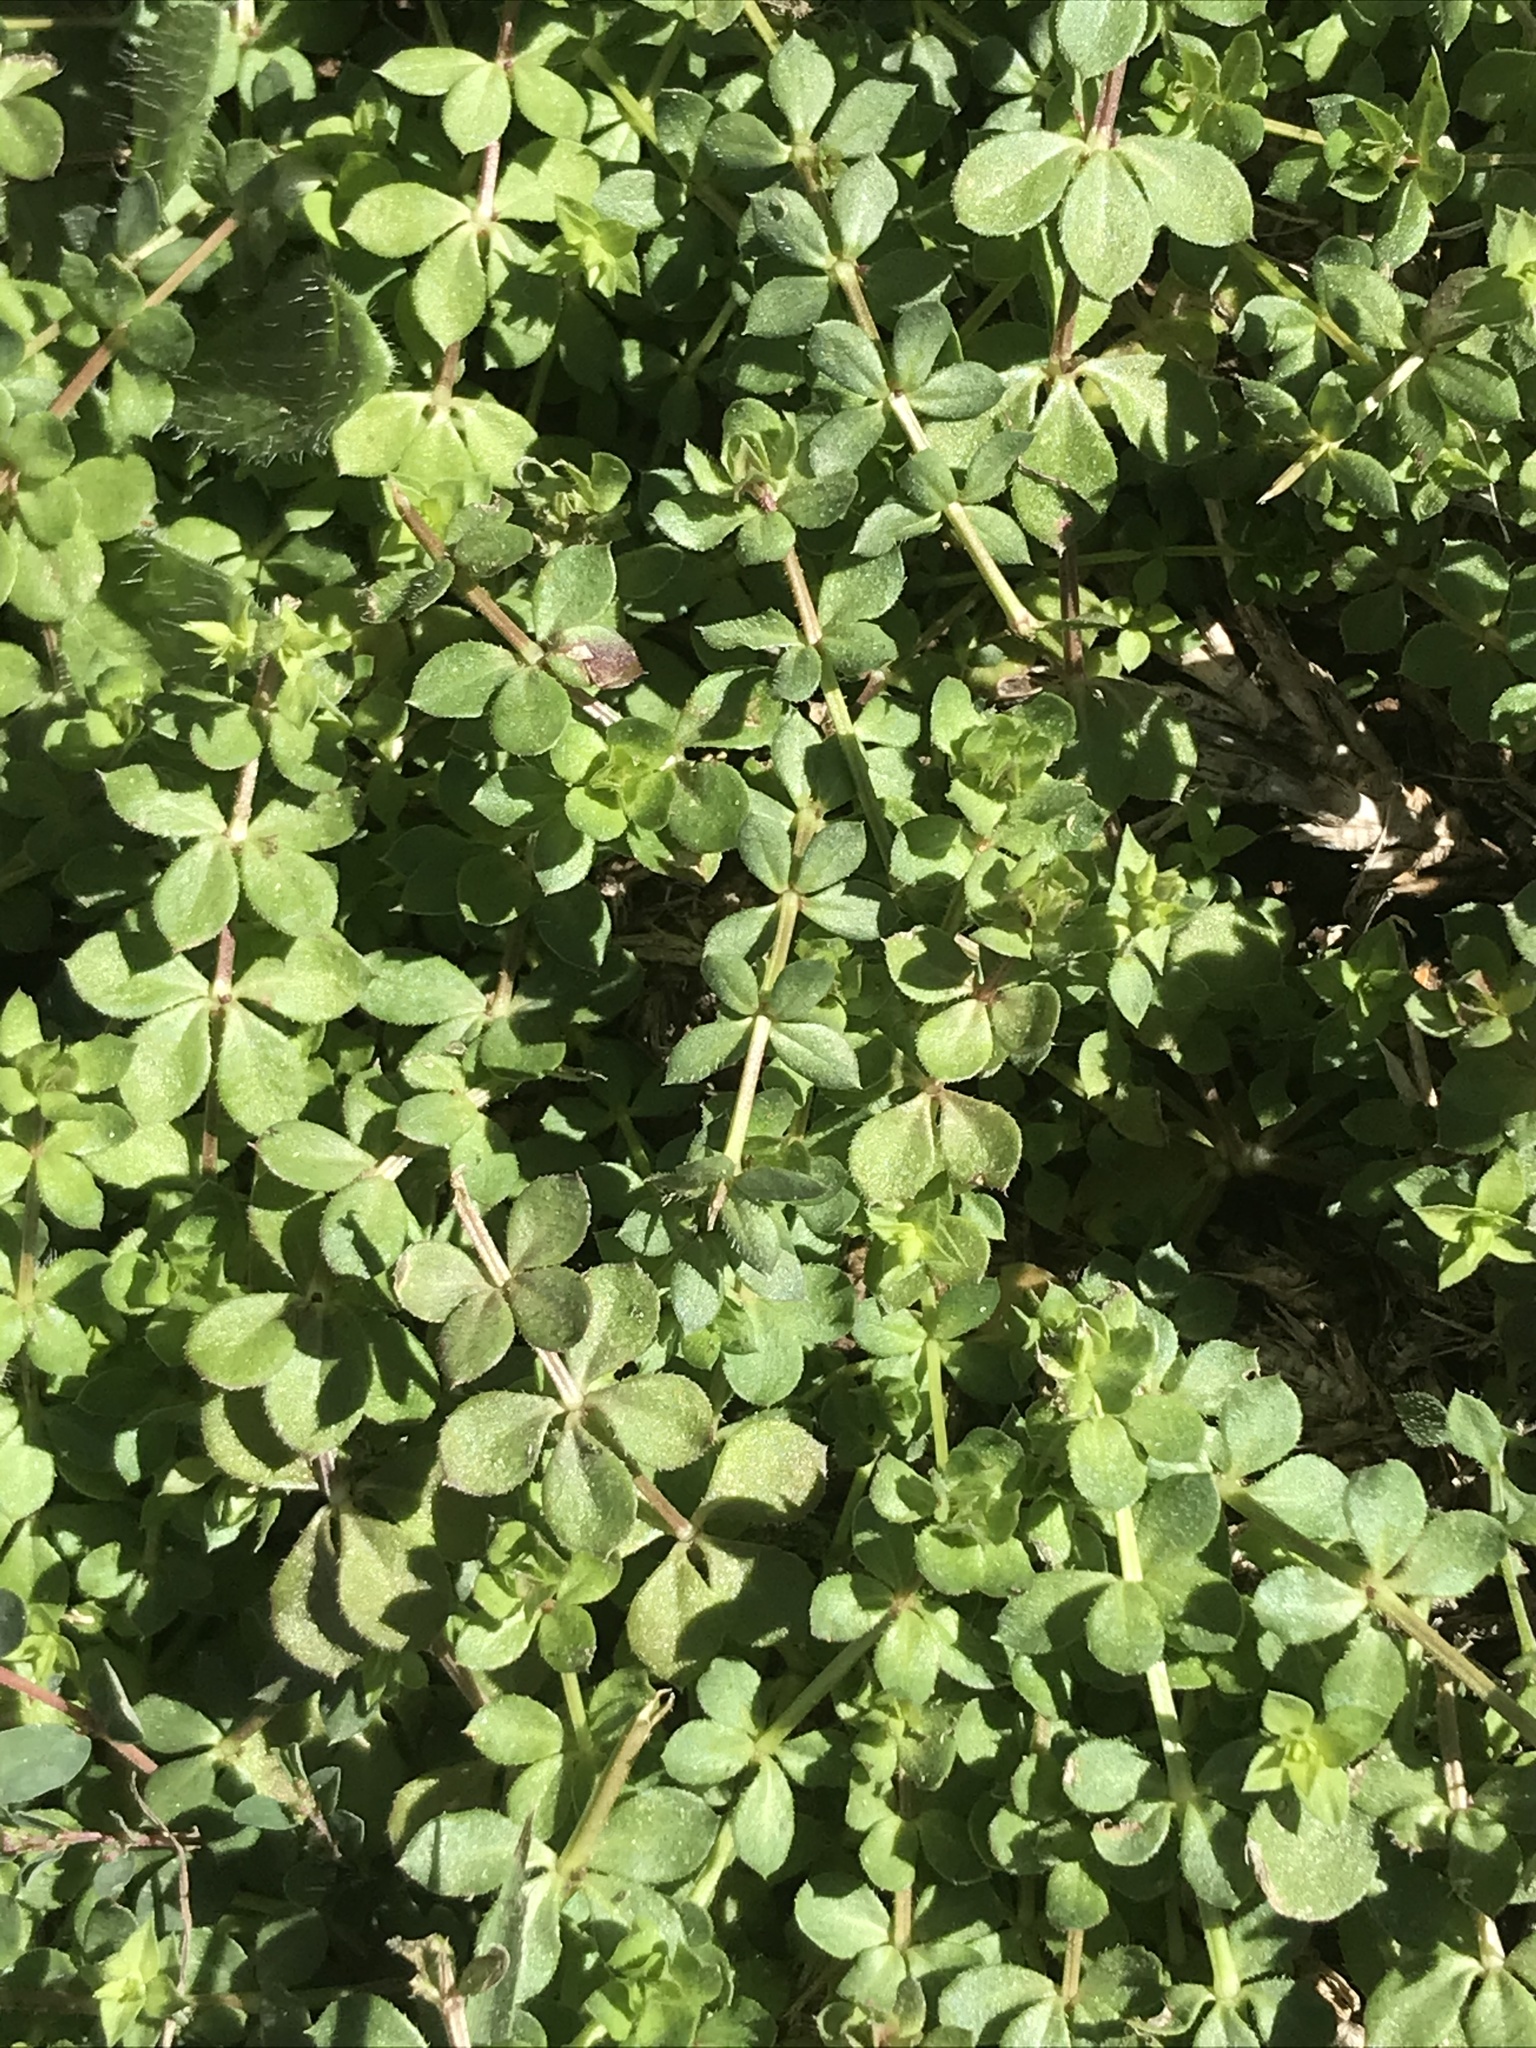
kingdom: Plantae
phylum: Tracheophyta
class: Magnoliopsida
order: Gentianales
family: Rubiaceae
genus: Sherardia
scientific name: Sherardia arvensis
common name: Field madder
